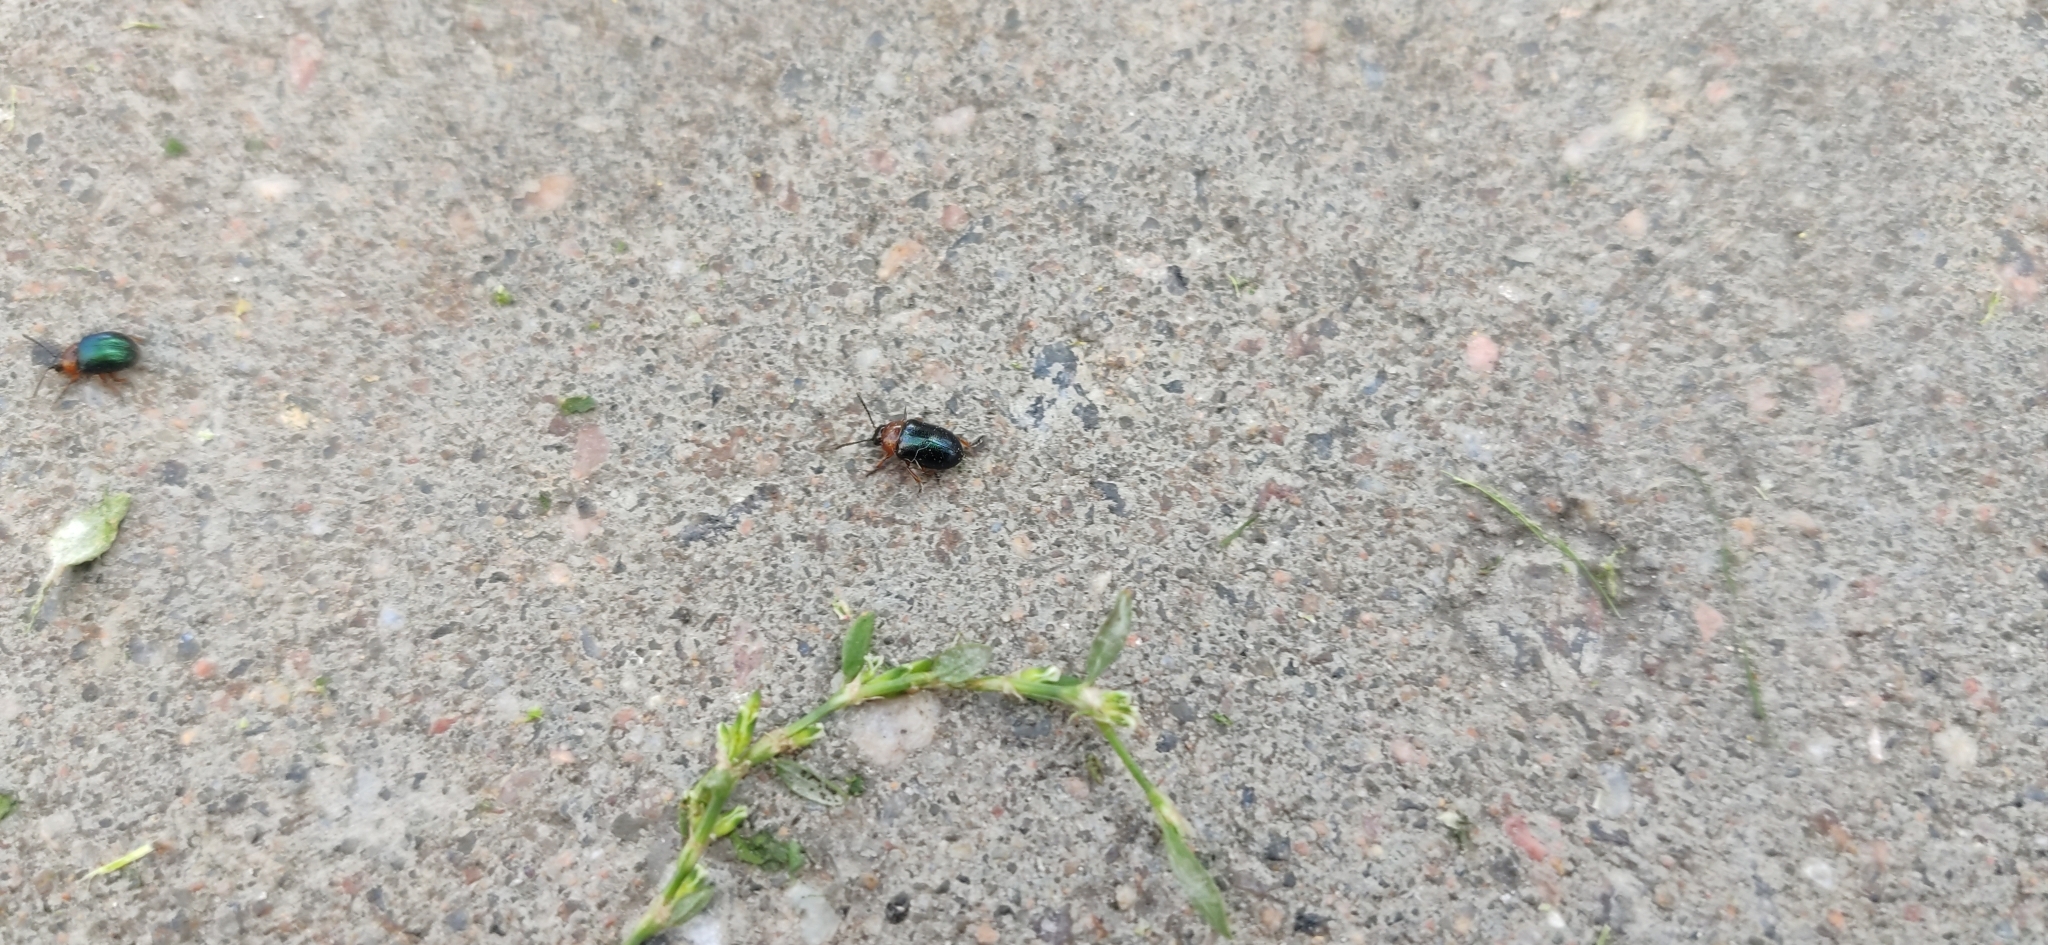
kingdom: Animalia
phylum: Arthropoda
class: Insecta
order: Coleoptera
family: Chrysomelidae
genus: Gastrophysa
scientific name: Gastrophysa polygoni
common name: Knotweed leaf beetle
